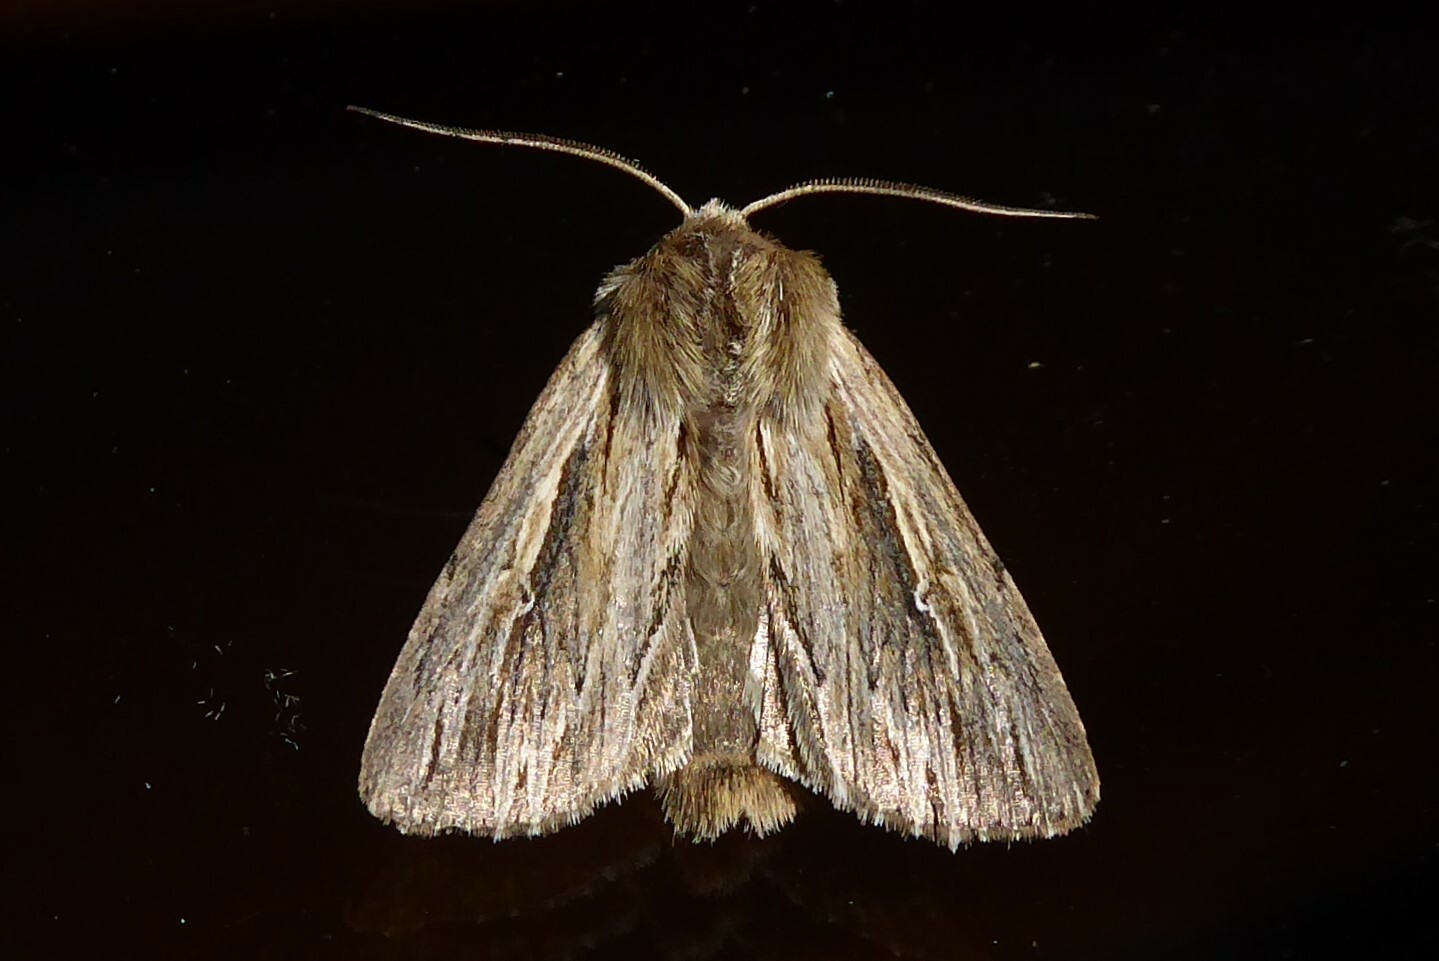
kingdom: Animalia
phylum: Arthropoda
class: Insecta
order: Lepidoptera
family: Noctuidae
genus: Persectania
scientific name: Persectania aversa
